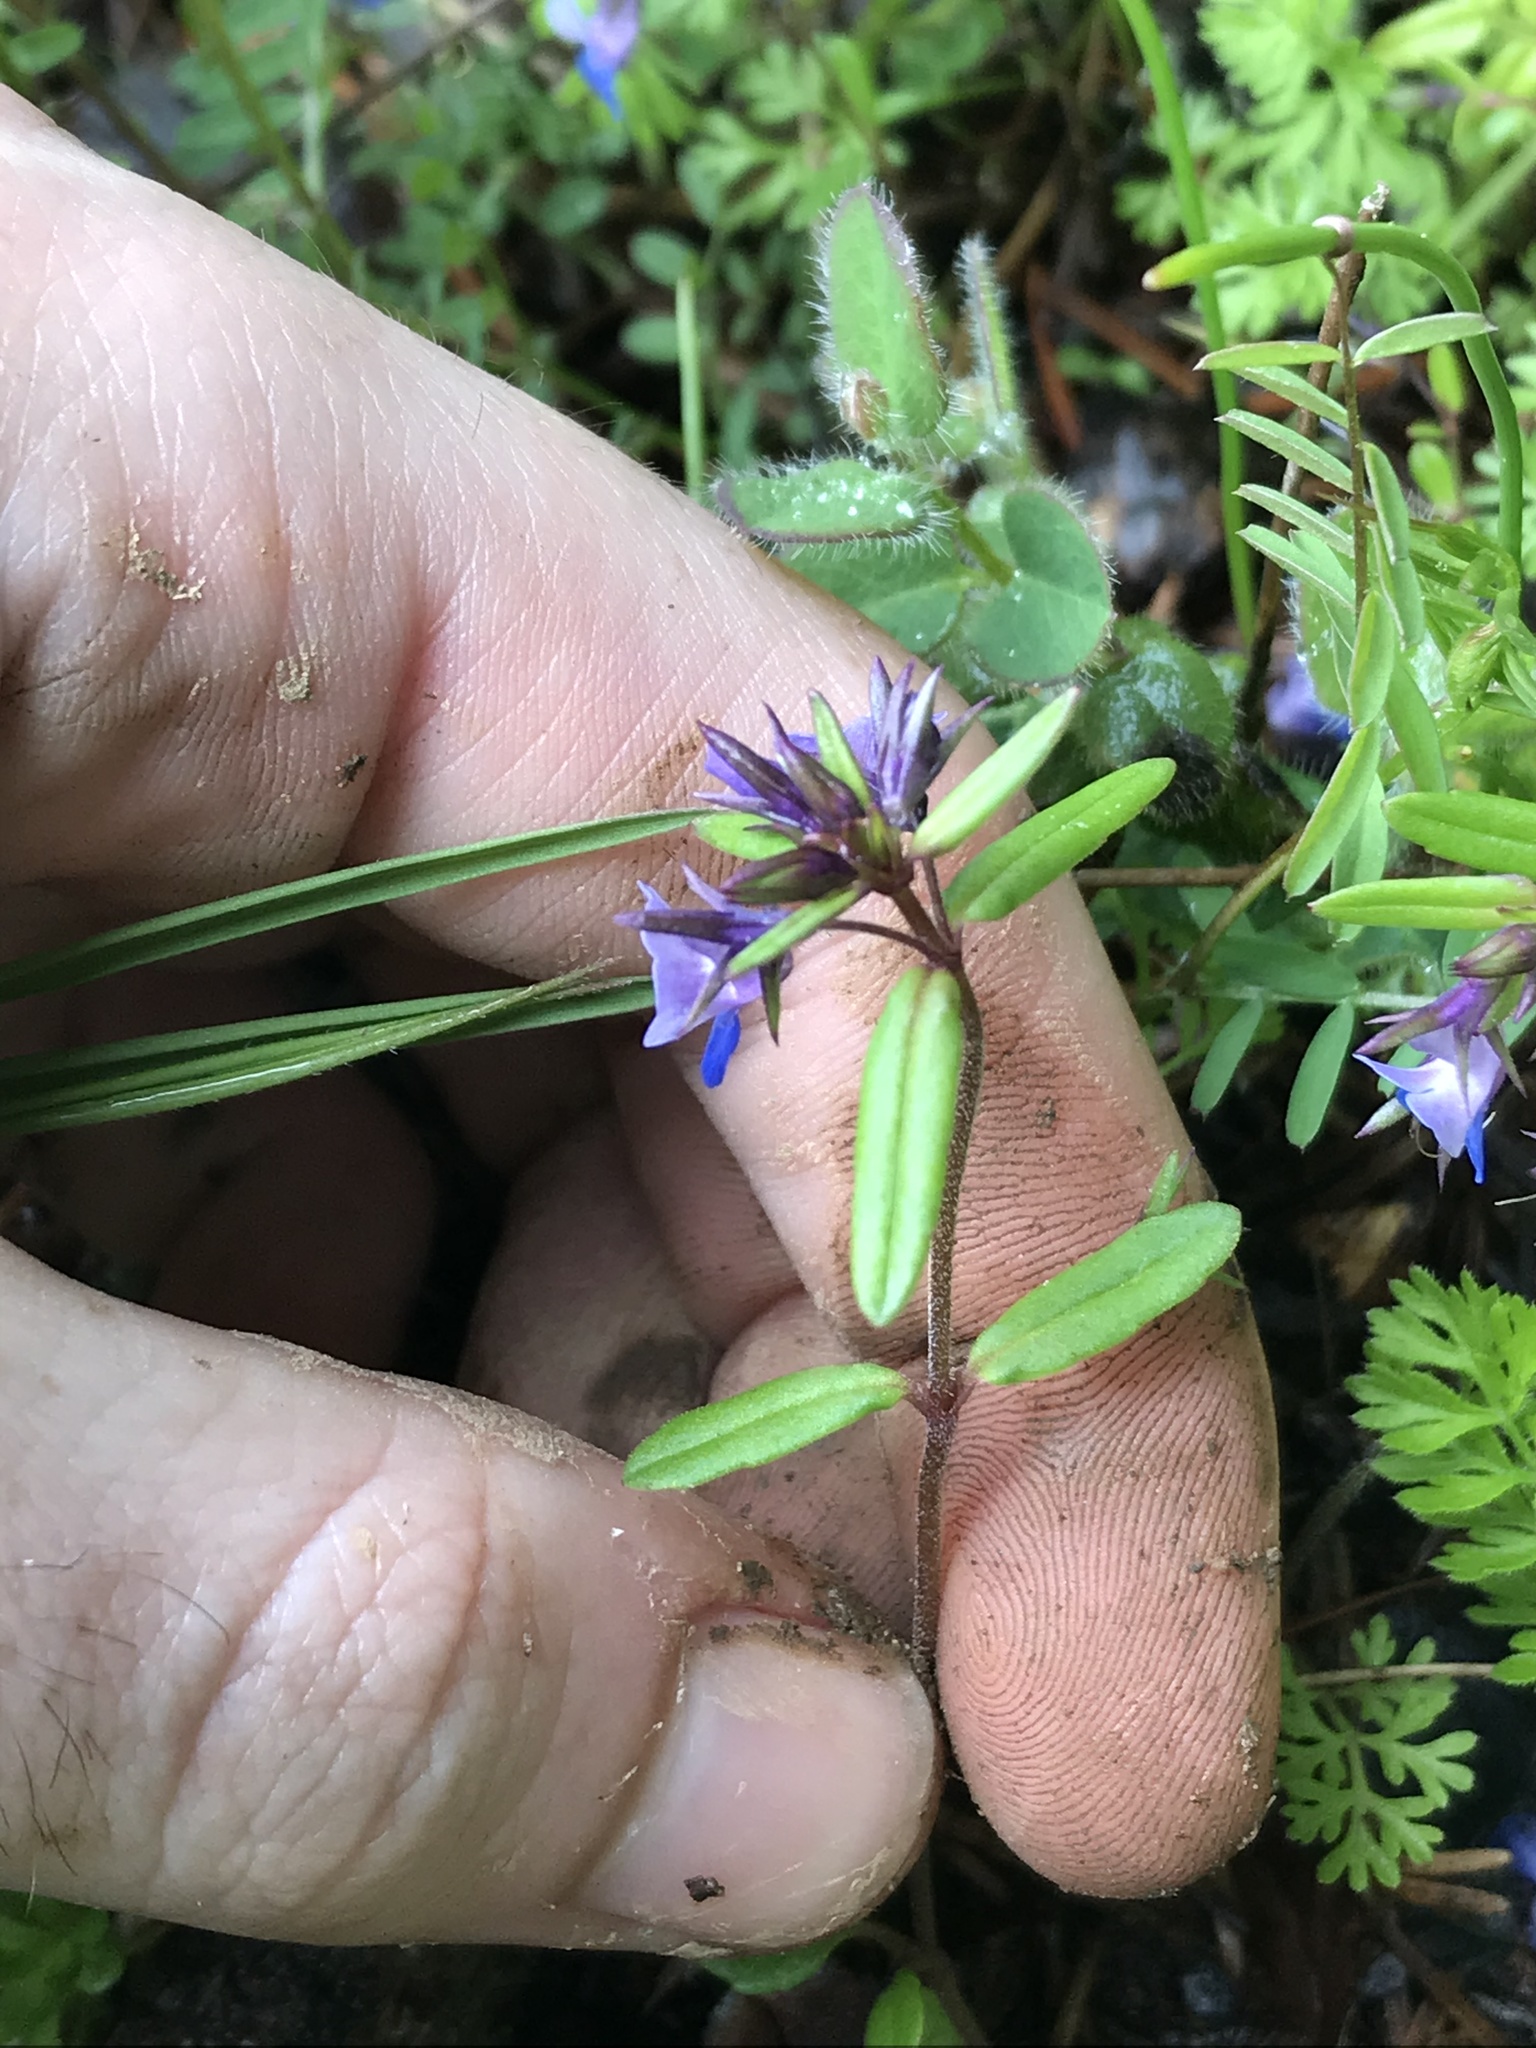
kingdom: Plantae
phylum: Tracheophyta
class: Magnoliopsida
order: Lamiales
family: Plantaginaceae
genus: Collinsia
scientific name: Collinsia grandiflora
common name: Large-flower blue-eyed-mary
